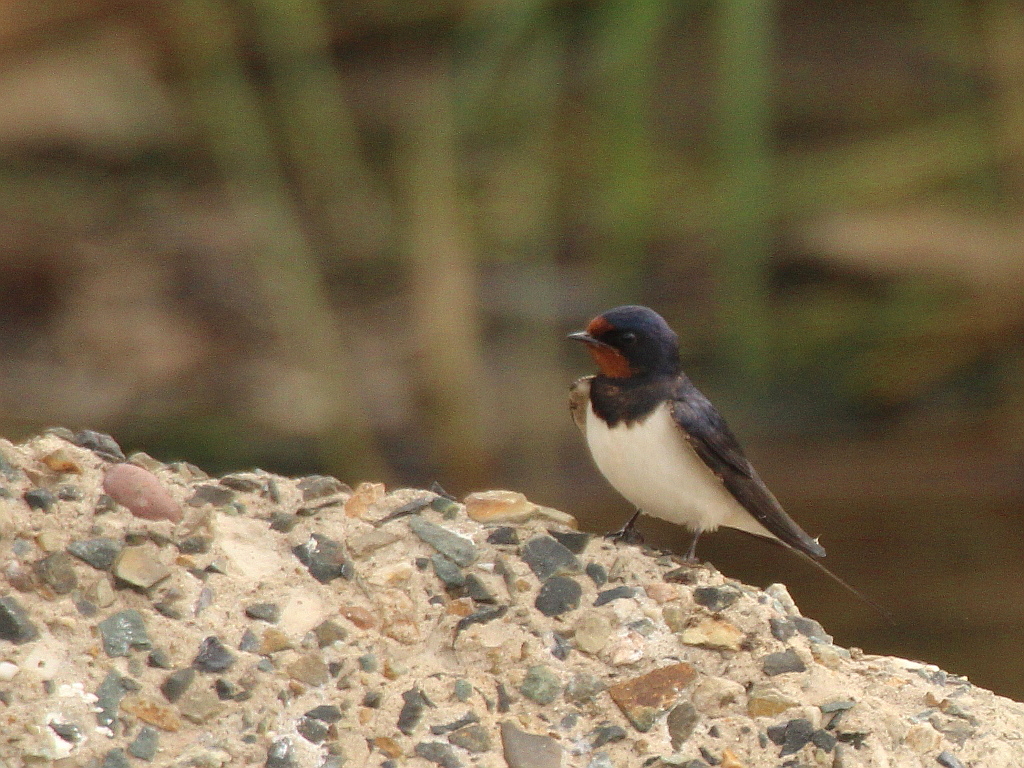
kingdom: Animalia
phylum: Chordata
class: Aves
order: Passeriformes
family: Hirundinidae
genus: Hirundo
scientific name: Hirundo rustica
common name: Barn swallow
